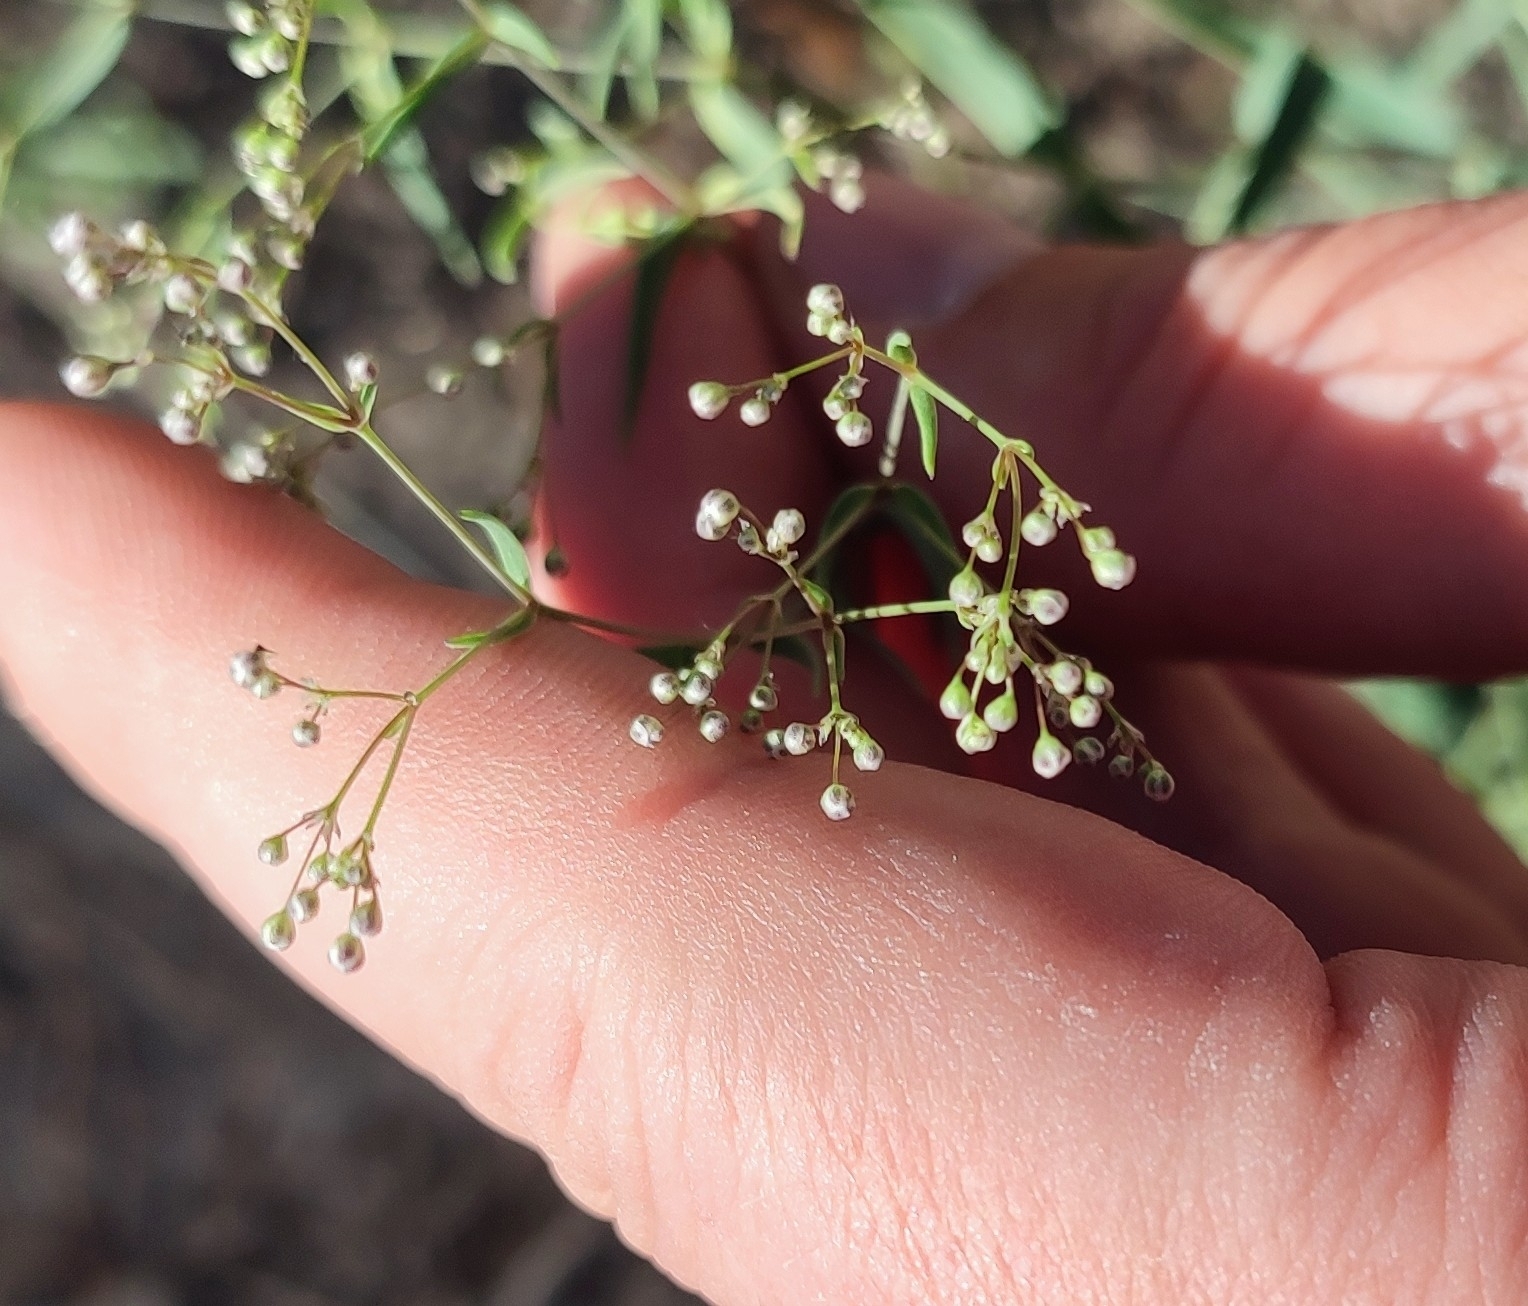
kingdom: Plantae
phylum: Tracheophyta
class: Magnoliopsida
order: Caryophyllales
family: Caryophyllaceae
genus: Gypsophila
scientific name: Gypsophila paniculata
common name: Baby's-breath
